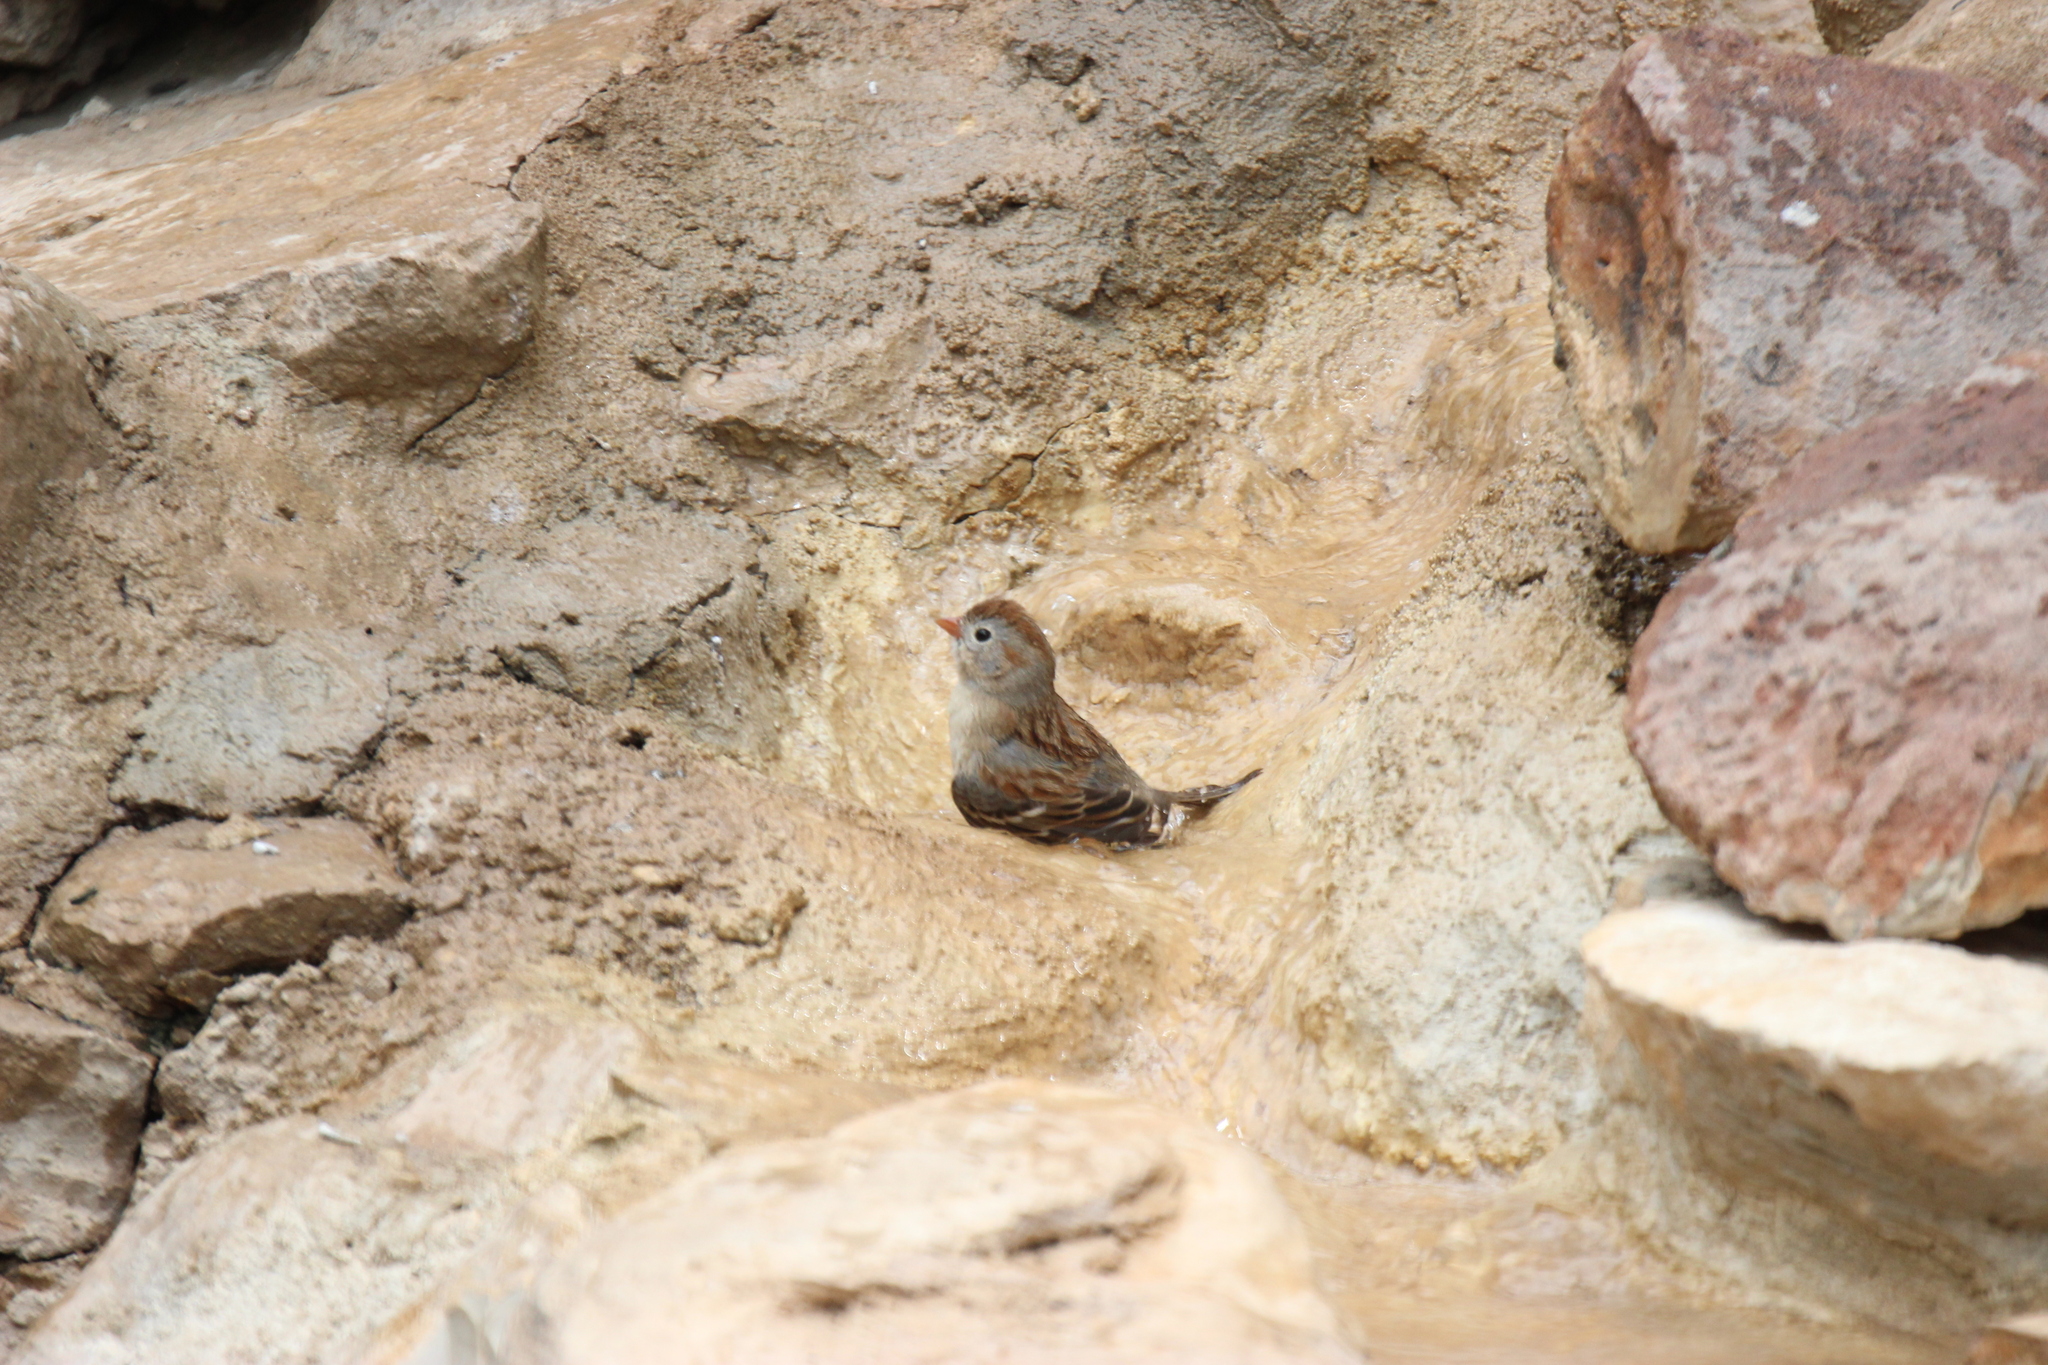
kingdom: Animalia
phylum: Chordata
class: Aves
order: Passeriformes
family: Passerellidae
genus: Spizella
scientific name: Spizella pusilla
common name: Field sparrow
